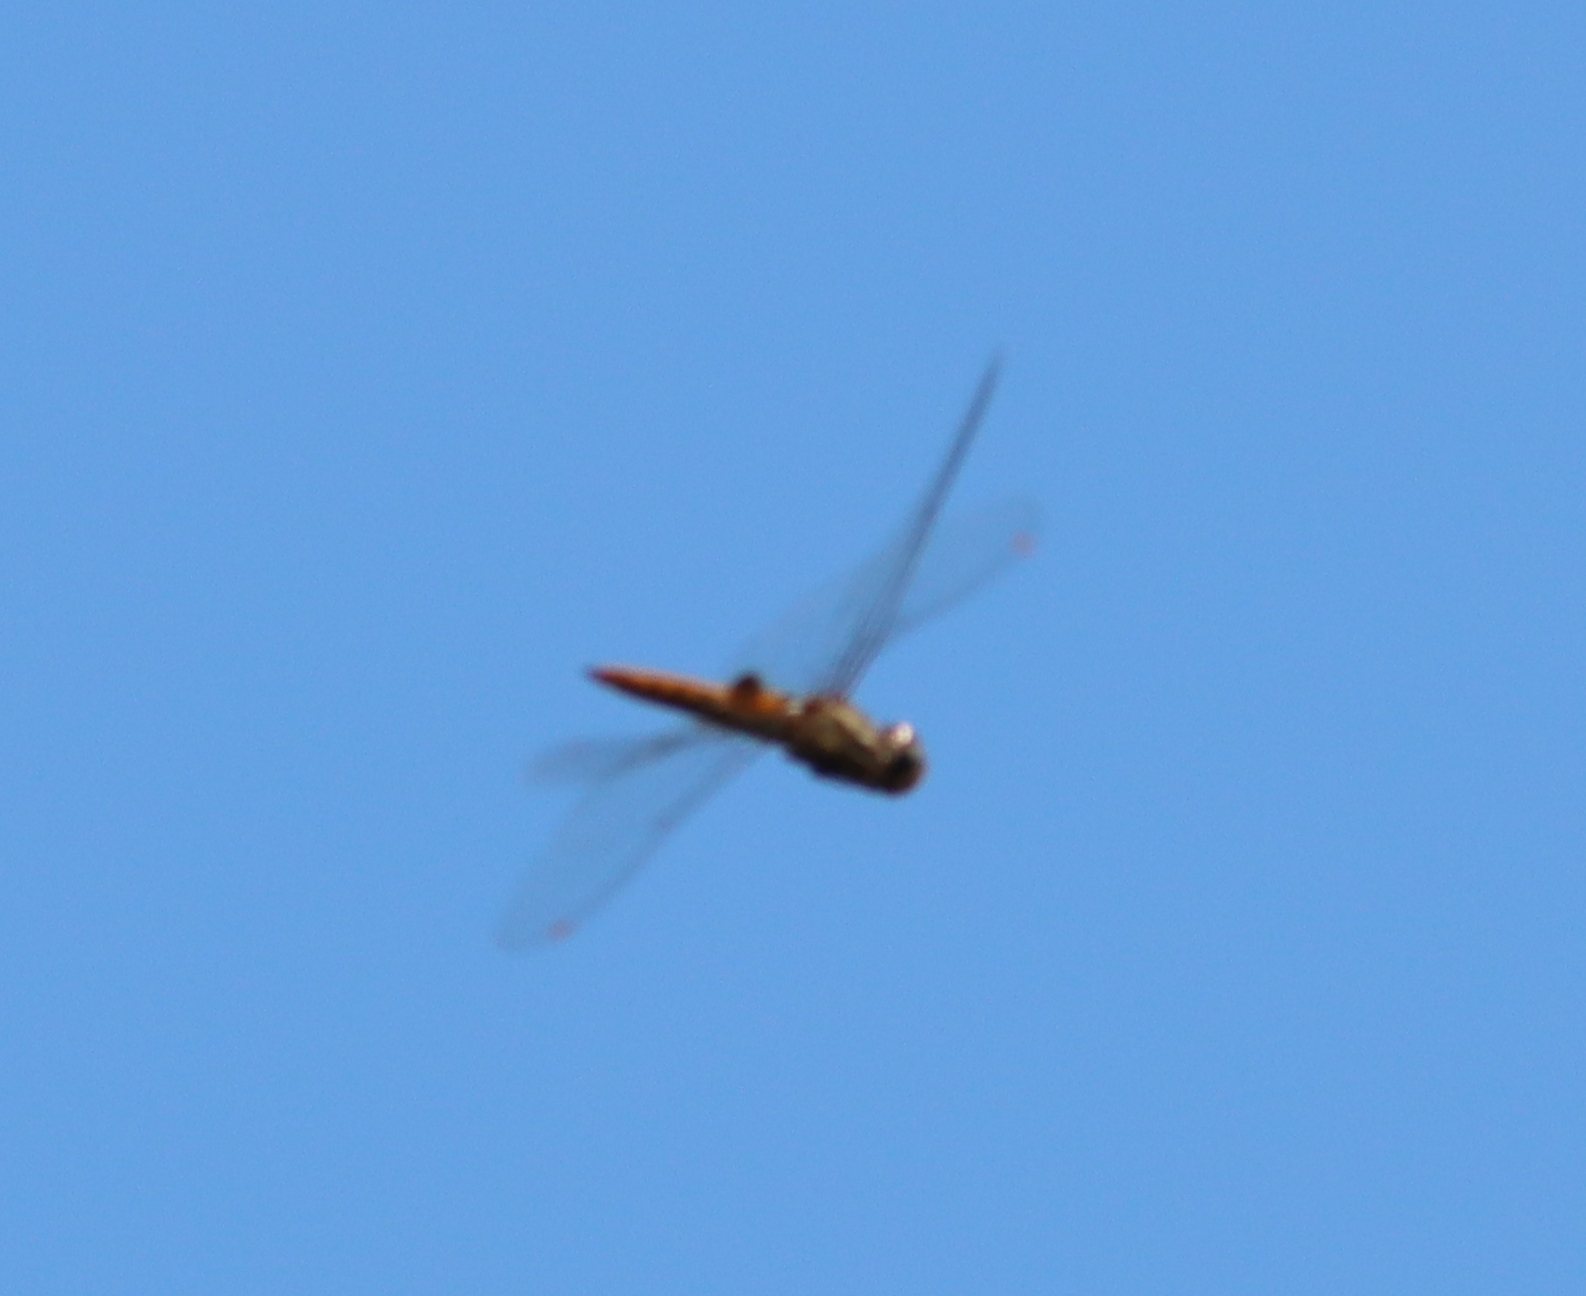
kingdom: Animalia
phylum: Arthropoda
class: Insecta
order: Odonata
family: Libellulidae
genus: Pantala
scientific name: Pantala hymenaea
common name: Spot-winged glider
